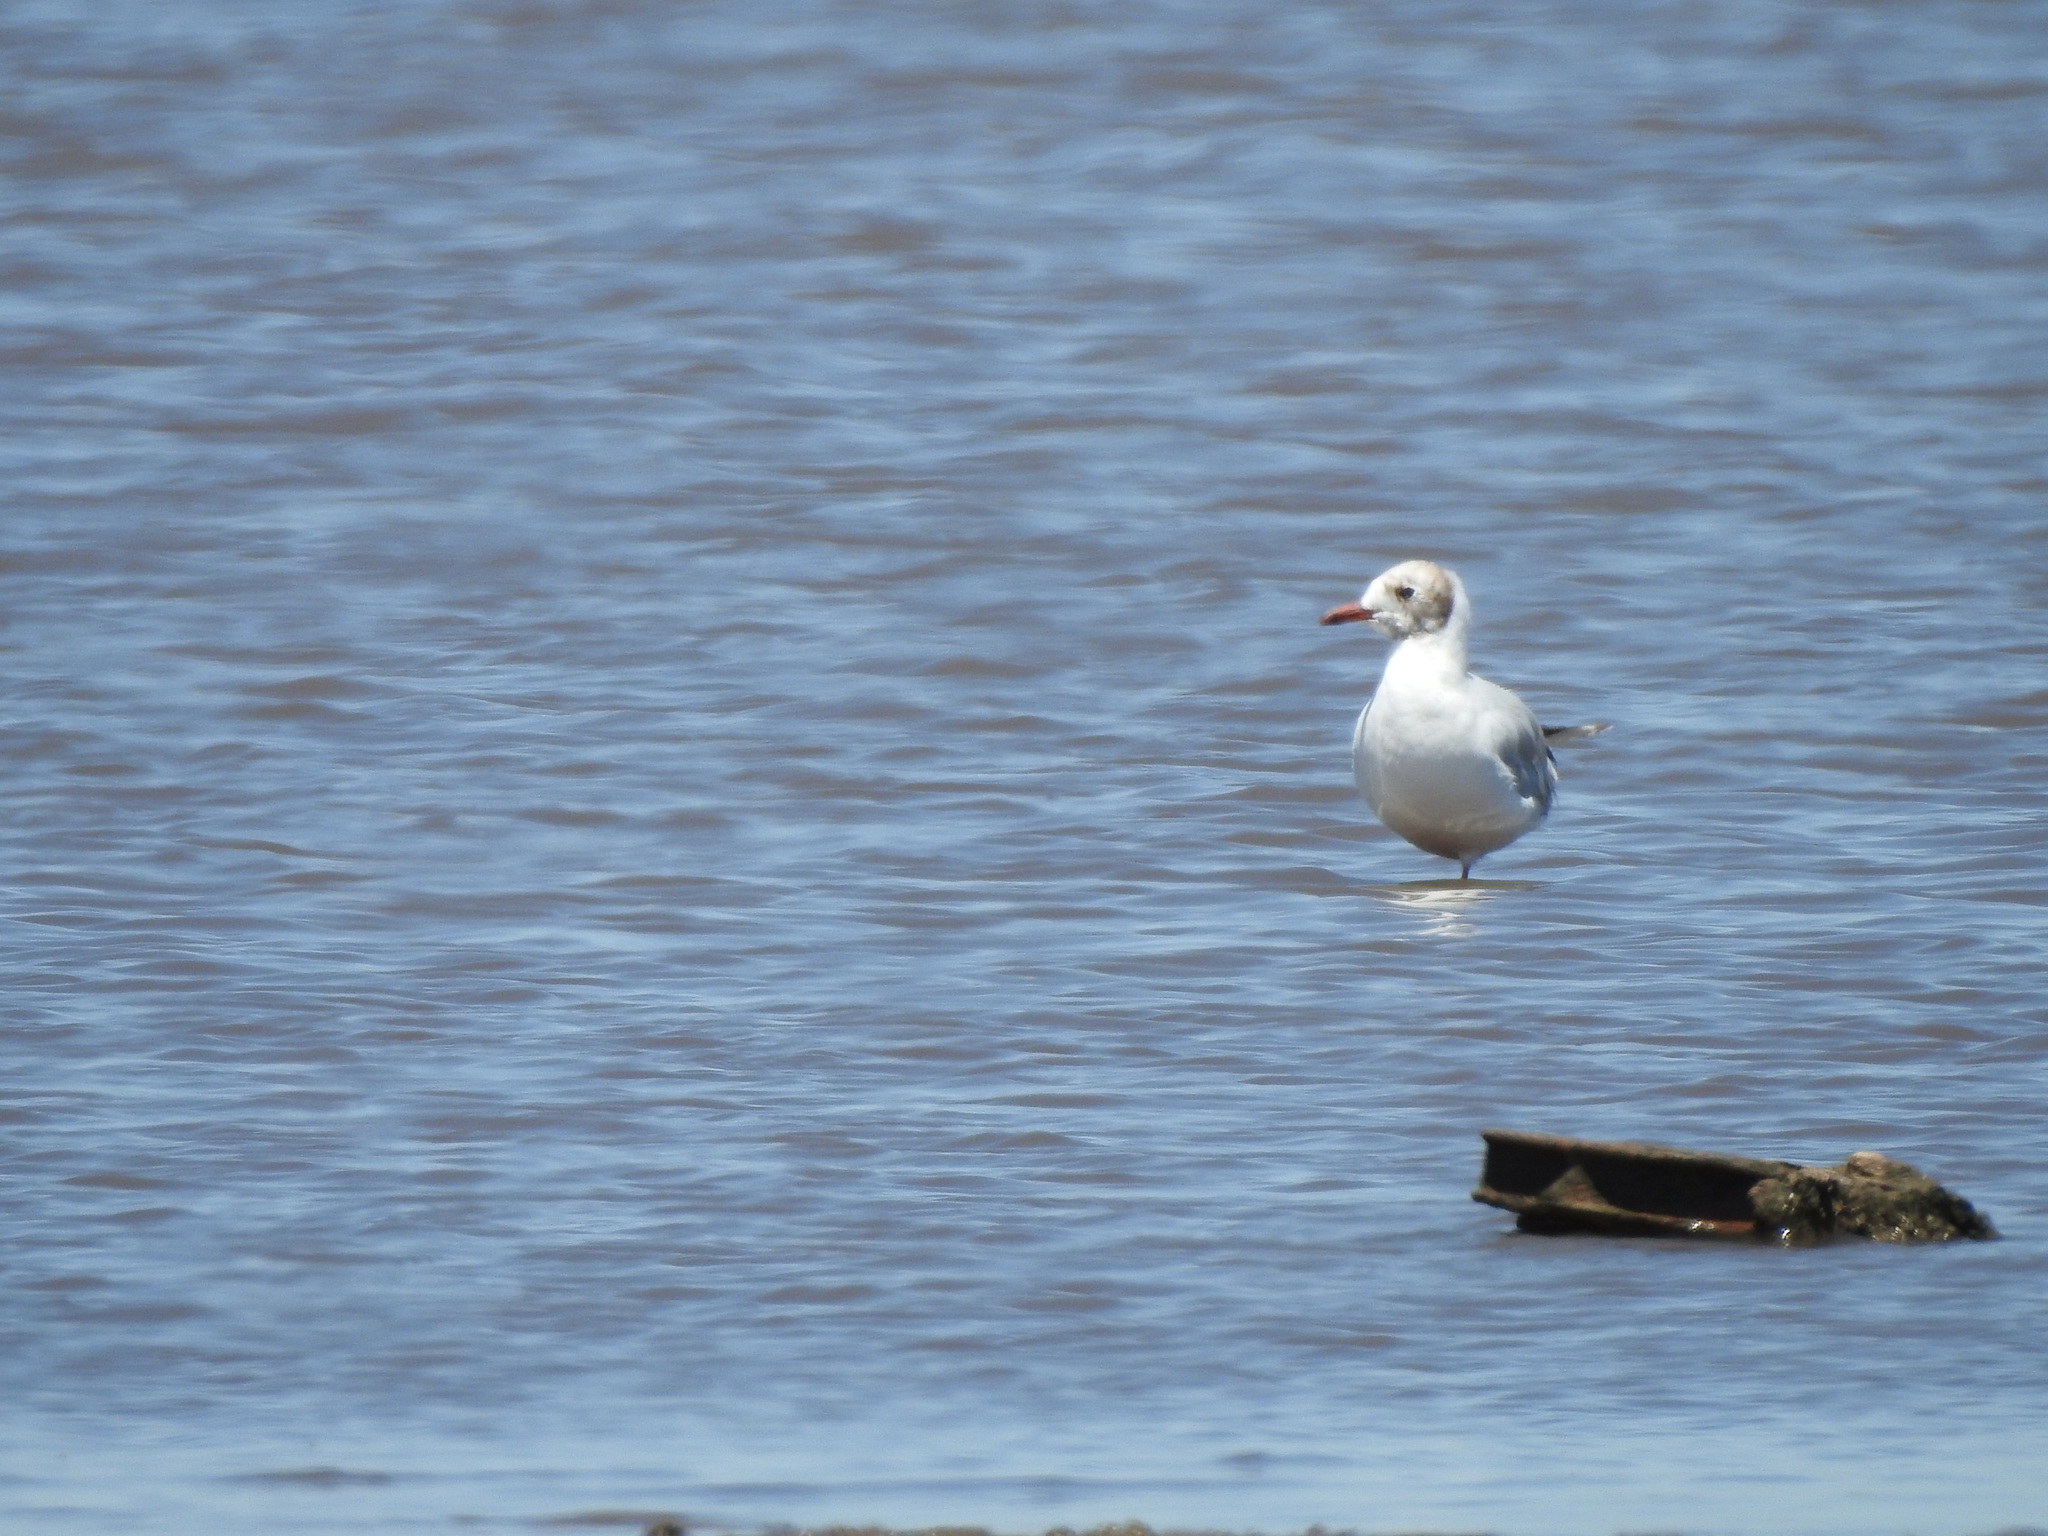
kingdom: Animalia
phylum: Chordata
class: Aves
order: Charadriiformes
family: Laridae
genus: Chroicocephalus
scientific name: Chroicocephalus maculipennis
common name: Brown-hooded gull
